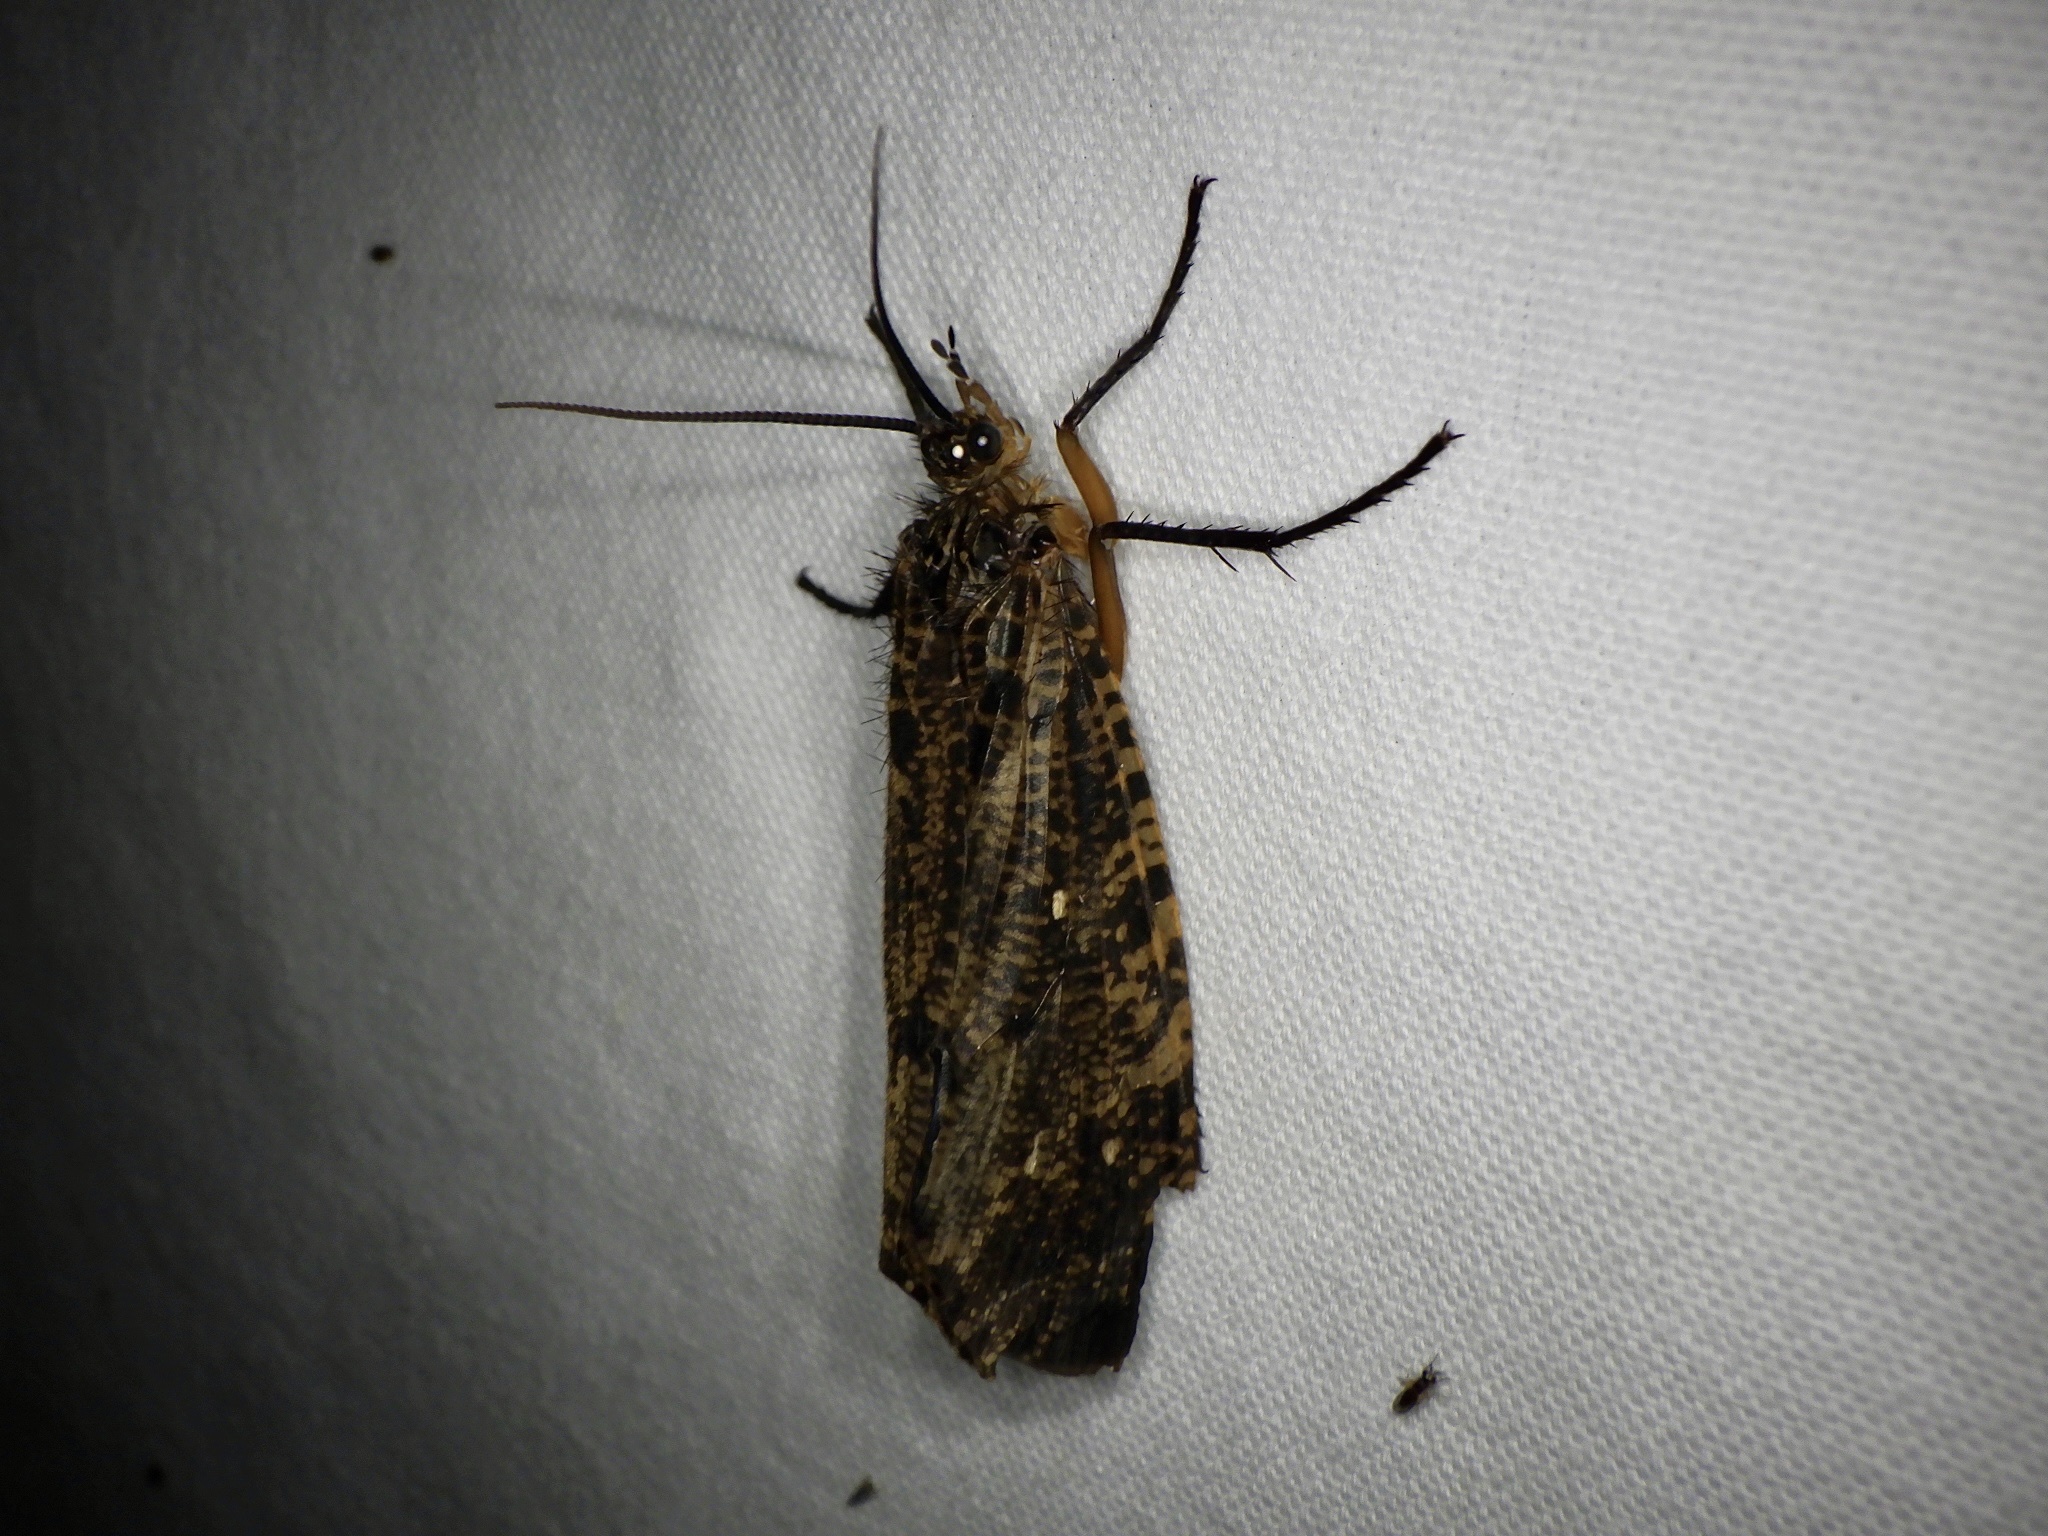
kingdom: Animalia
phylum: Arthropoda
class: Insecta
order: Trichoptera
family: Phryganeidae
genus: Eubasilissa
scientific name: Eubasilissa regina
